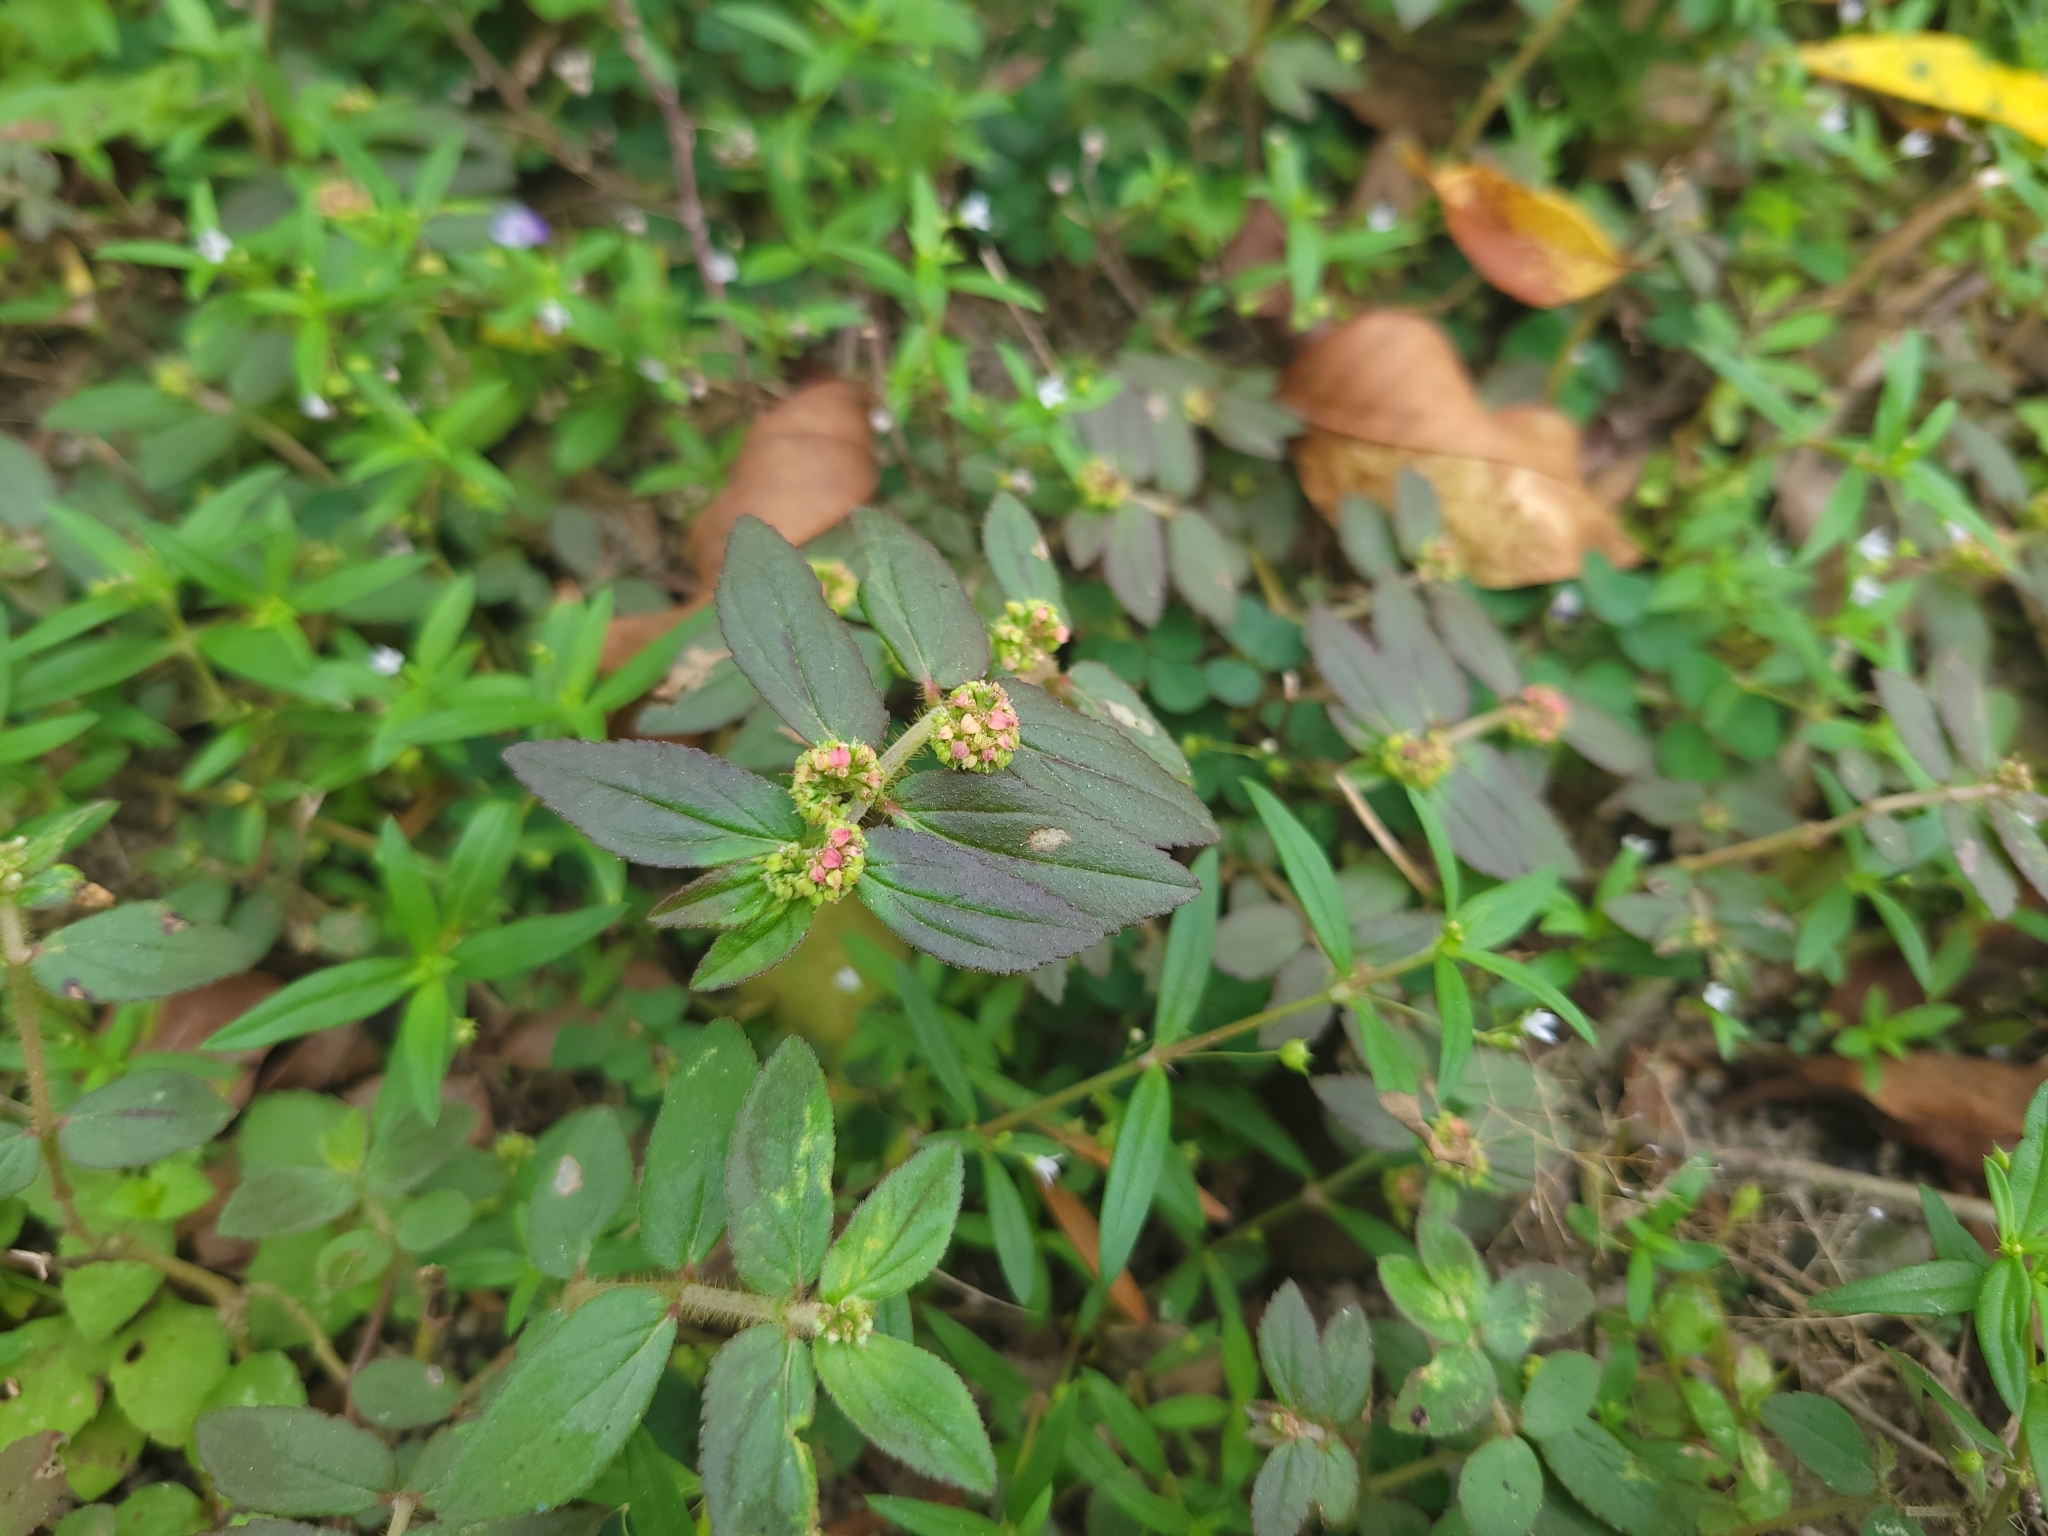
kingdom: Plantae
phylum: Tracheophyta
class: Magnoliopsida
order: Malpighiales
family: Euphorbiaceae
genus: Euphorbia
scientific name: Euphorbia hirta
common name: Pillpod sandmat
